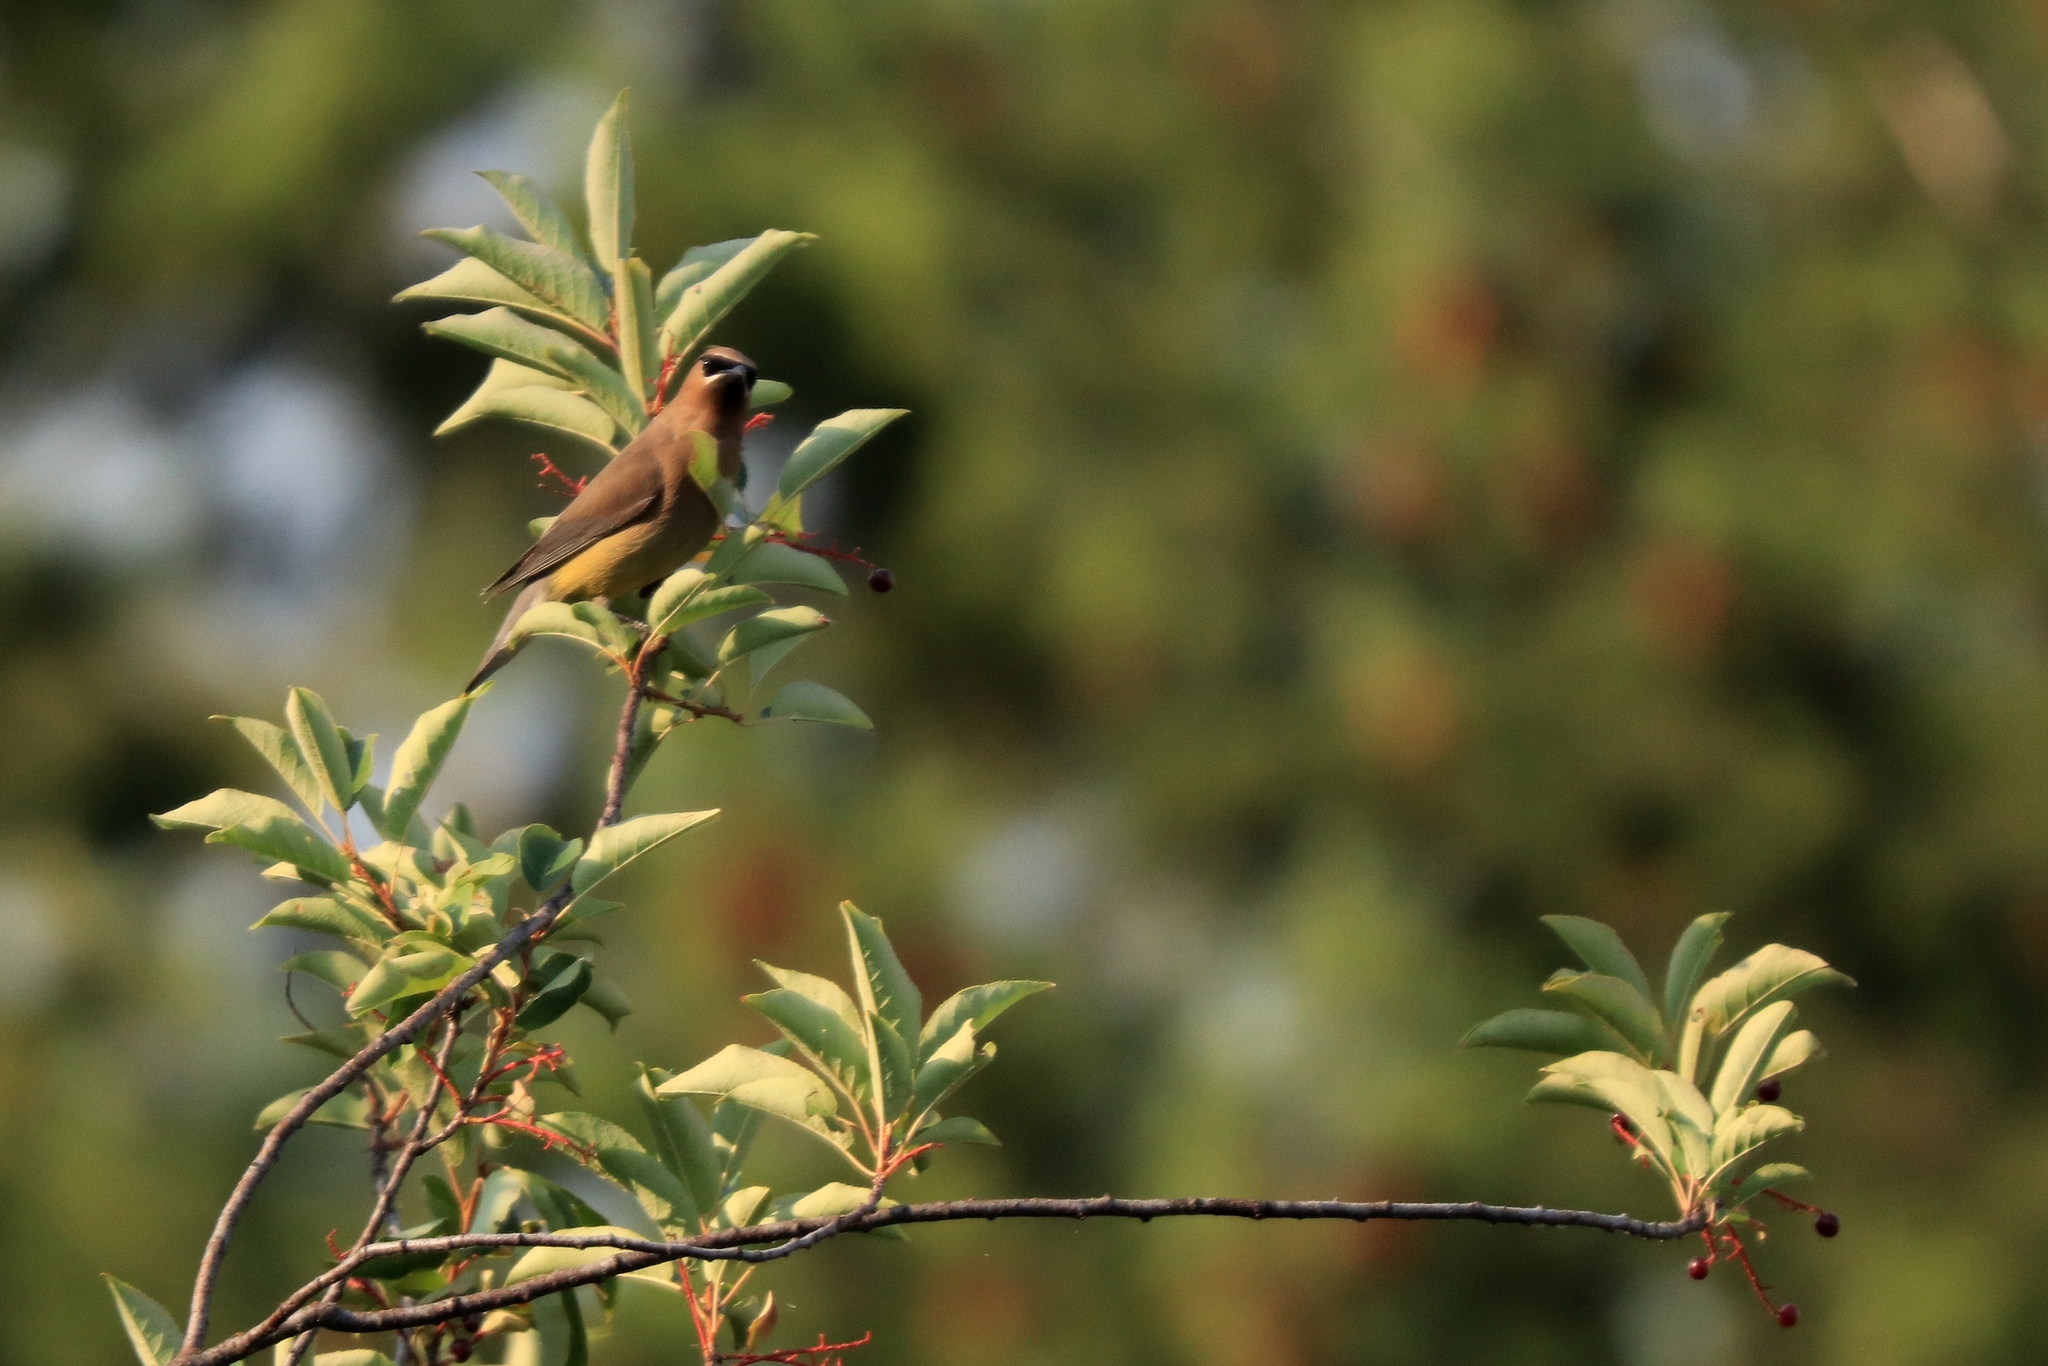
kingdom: Animalia
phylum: Chordata
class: Aves
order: Passeriformes
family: Bombycillidae
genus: Bombycilla
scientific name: Bombycilla cedrorum
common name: Cedar waxwing
